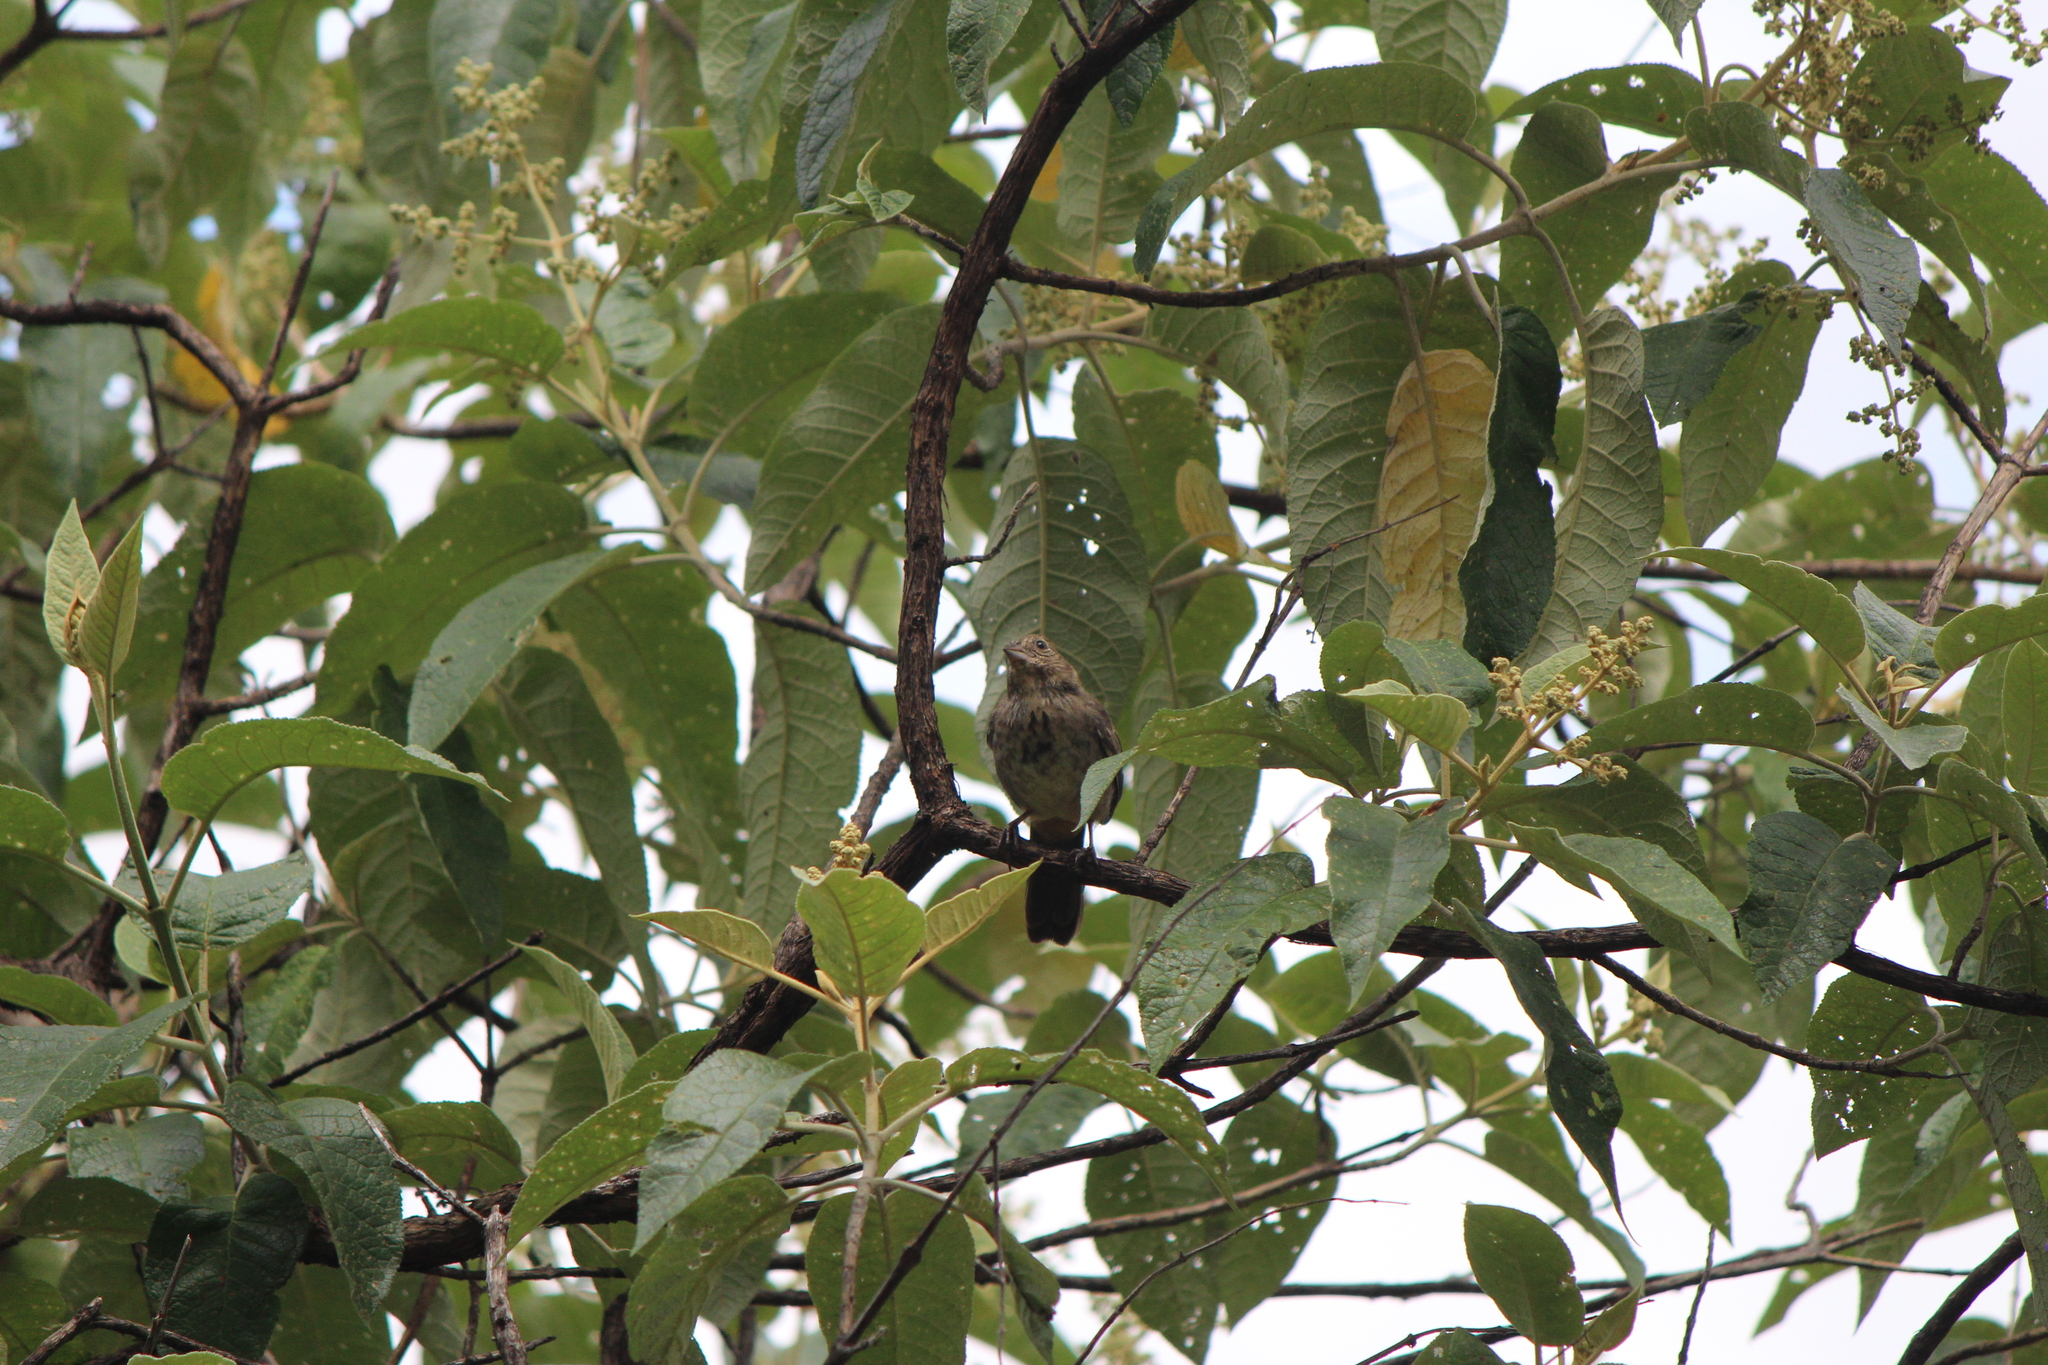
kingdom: Animalia
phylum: Chordata
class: Aves
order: Passeriformes
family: Passerellidae
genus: Melozone
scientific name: Melozone fusca
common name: Canyon towhee
